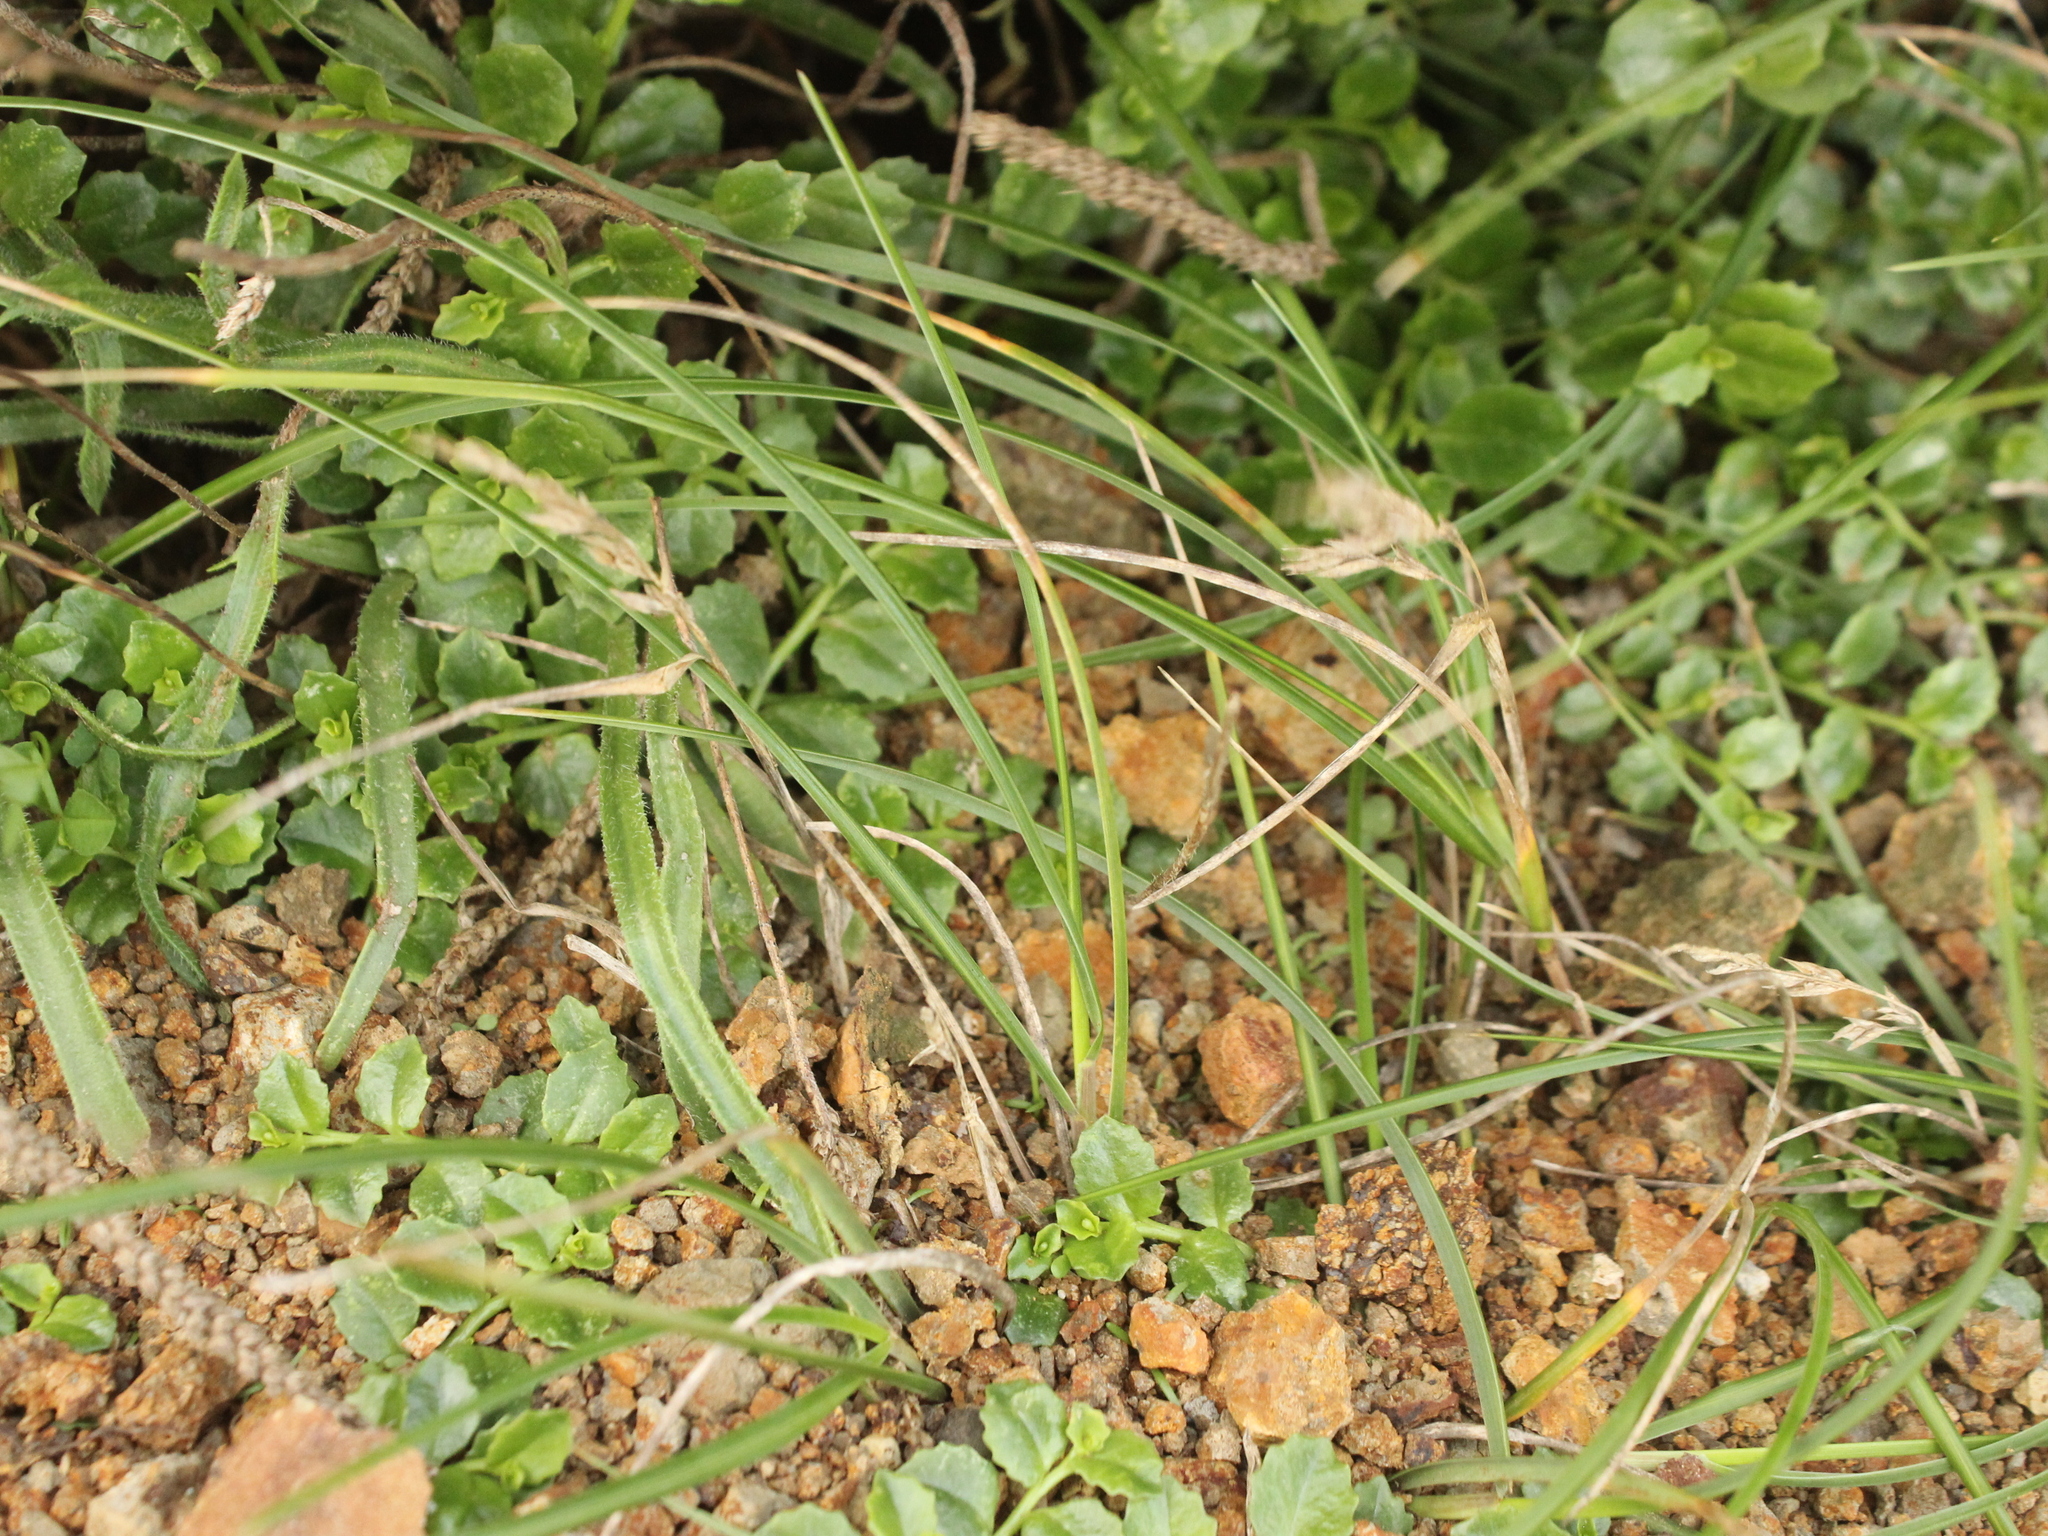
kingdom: Plantae
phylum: Tracheophyta
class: Liliopsida
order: Poales
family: Poaceae
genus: Poa
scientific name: Poa chathamica
